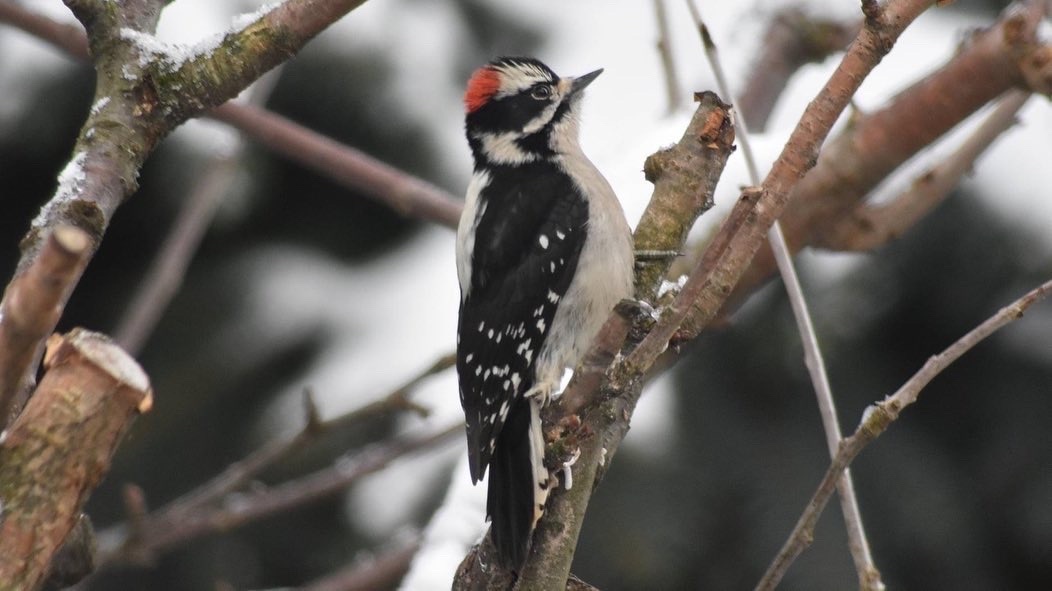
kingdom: Animalia
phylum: Chordata
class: Aves
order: Piciformes
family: Picidae
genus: Dryobates
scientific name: Dryobates pubescens
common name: Downy woodpecker
